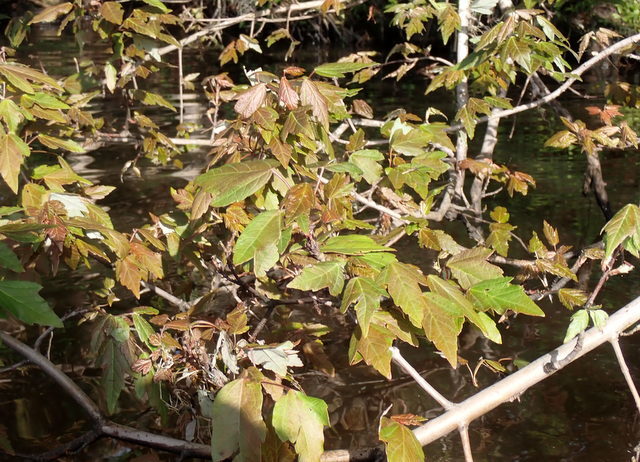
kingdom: Plantae
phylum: Tracheophyta
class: Magnoliopsida
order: Sapindales
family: Sapindaceae
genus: Acer
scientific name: Acer rubrum
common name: Red maple
